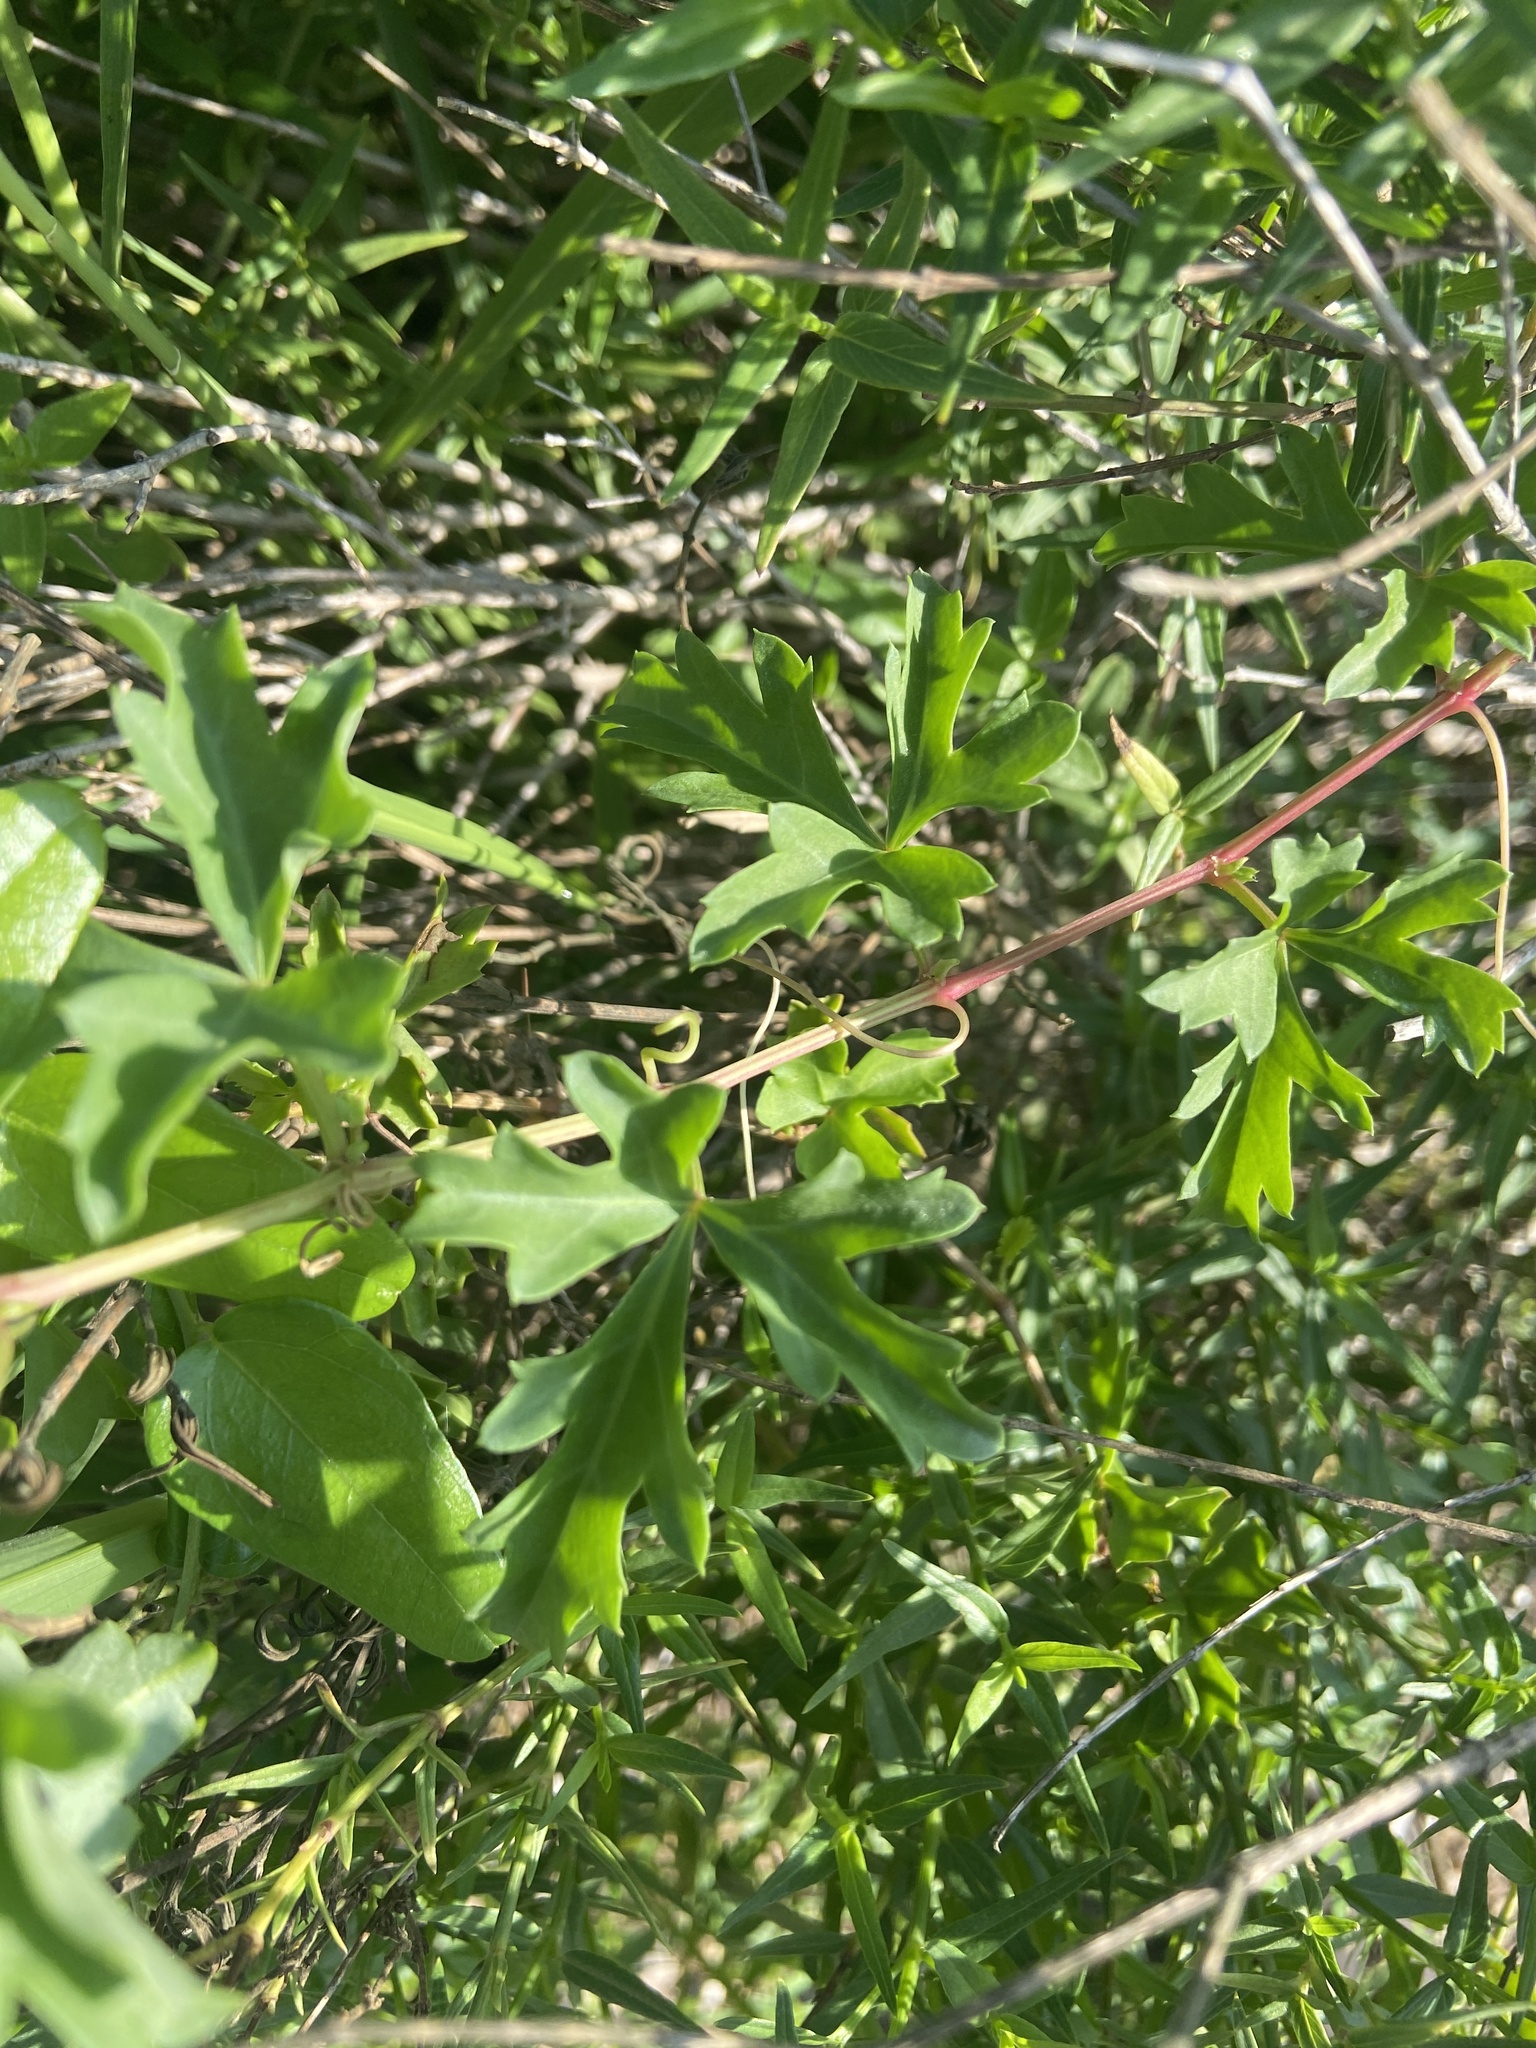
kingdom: Plantae
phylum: Tracheophyta
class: Magnoliopsida
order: Vitales
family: Vitaceae
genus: Cissus
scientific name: Cissus trifoliata
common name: Vine-sorrel
